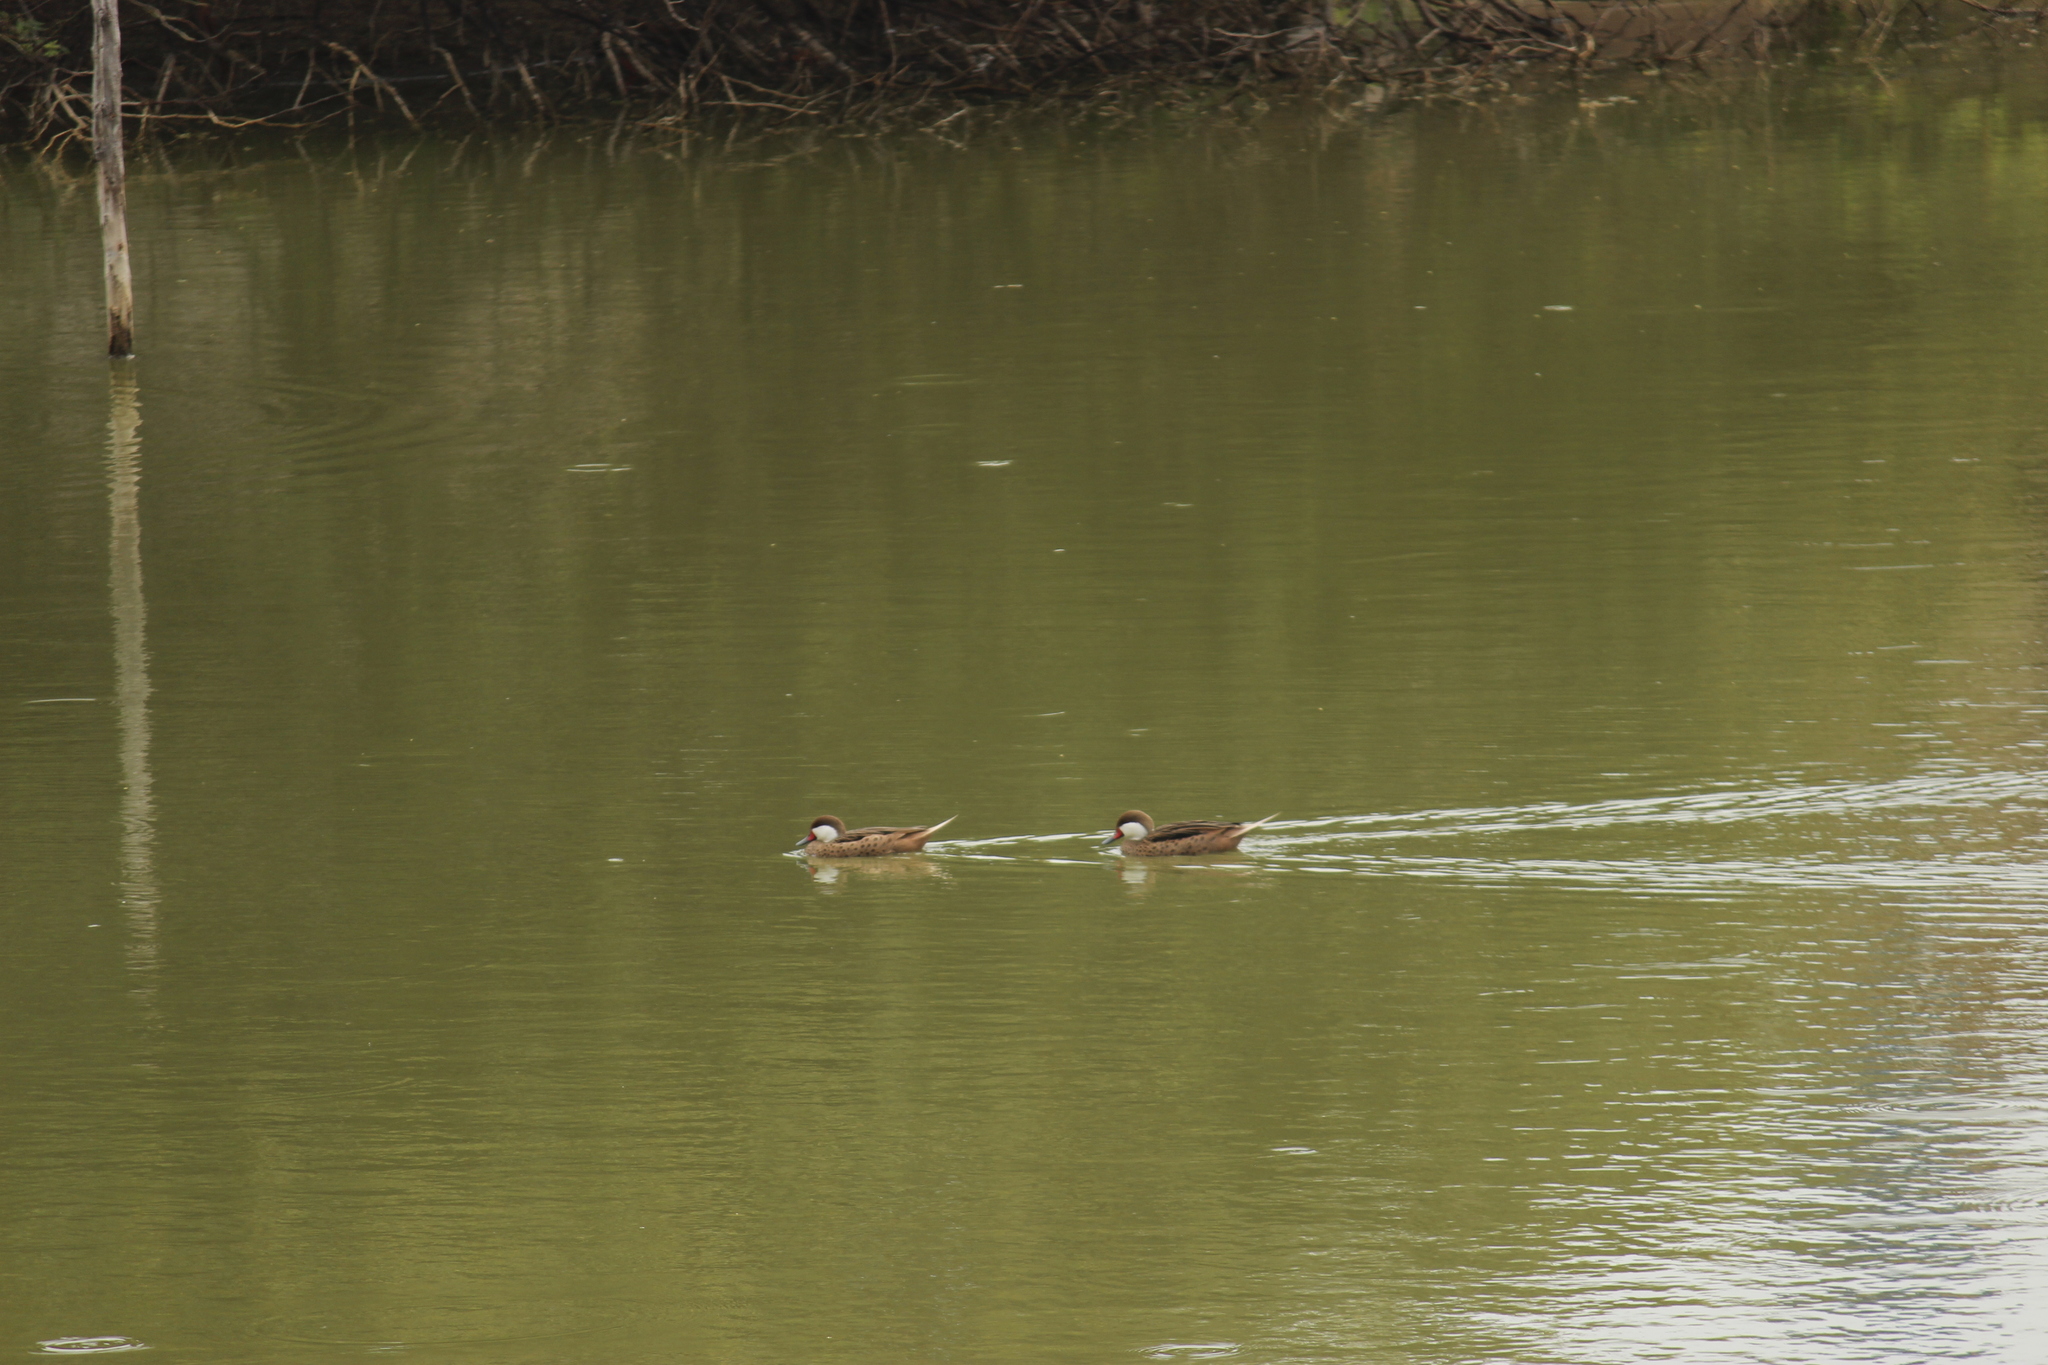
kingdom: Animalia
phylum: Chordata
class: Aves
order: Anseriformes
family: Anatidae
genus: Anas
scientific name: Anas bahamensis
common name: White-cheeked pintail
